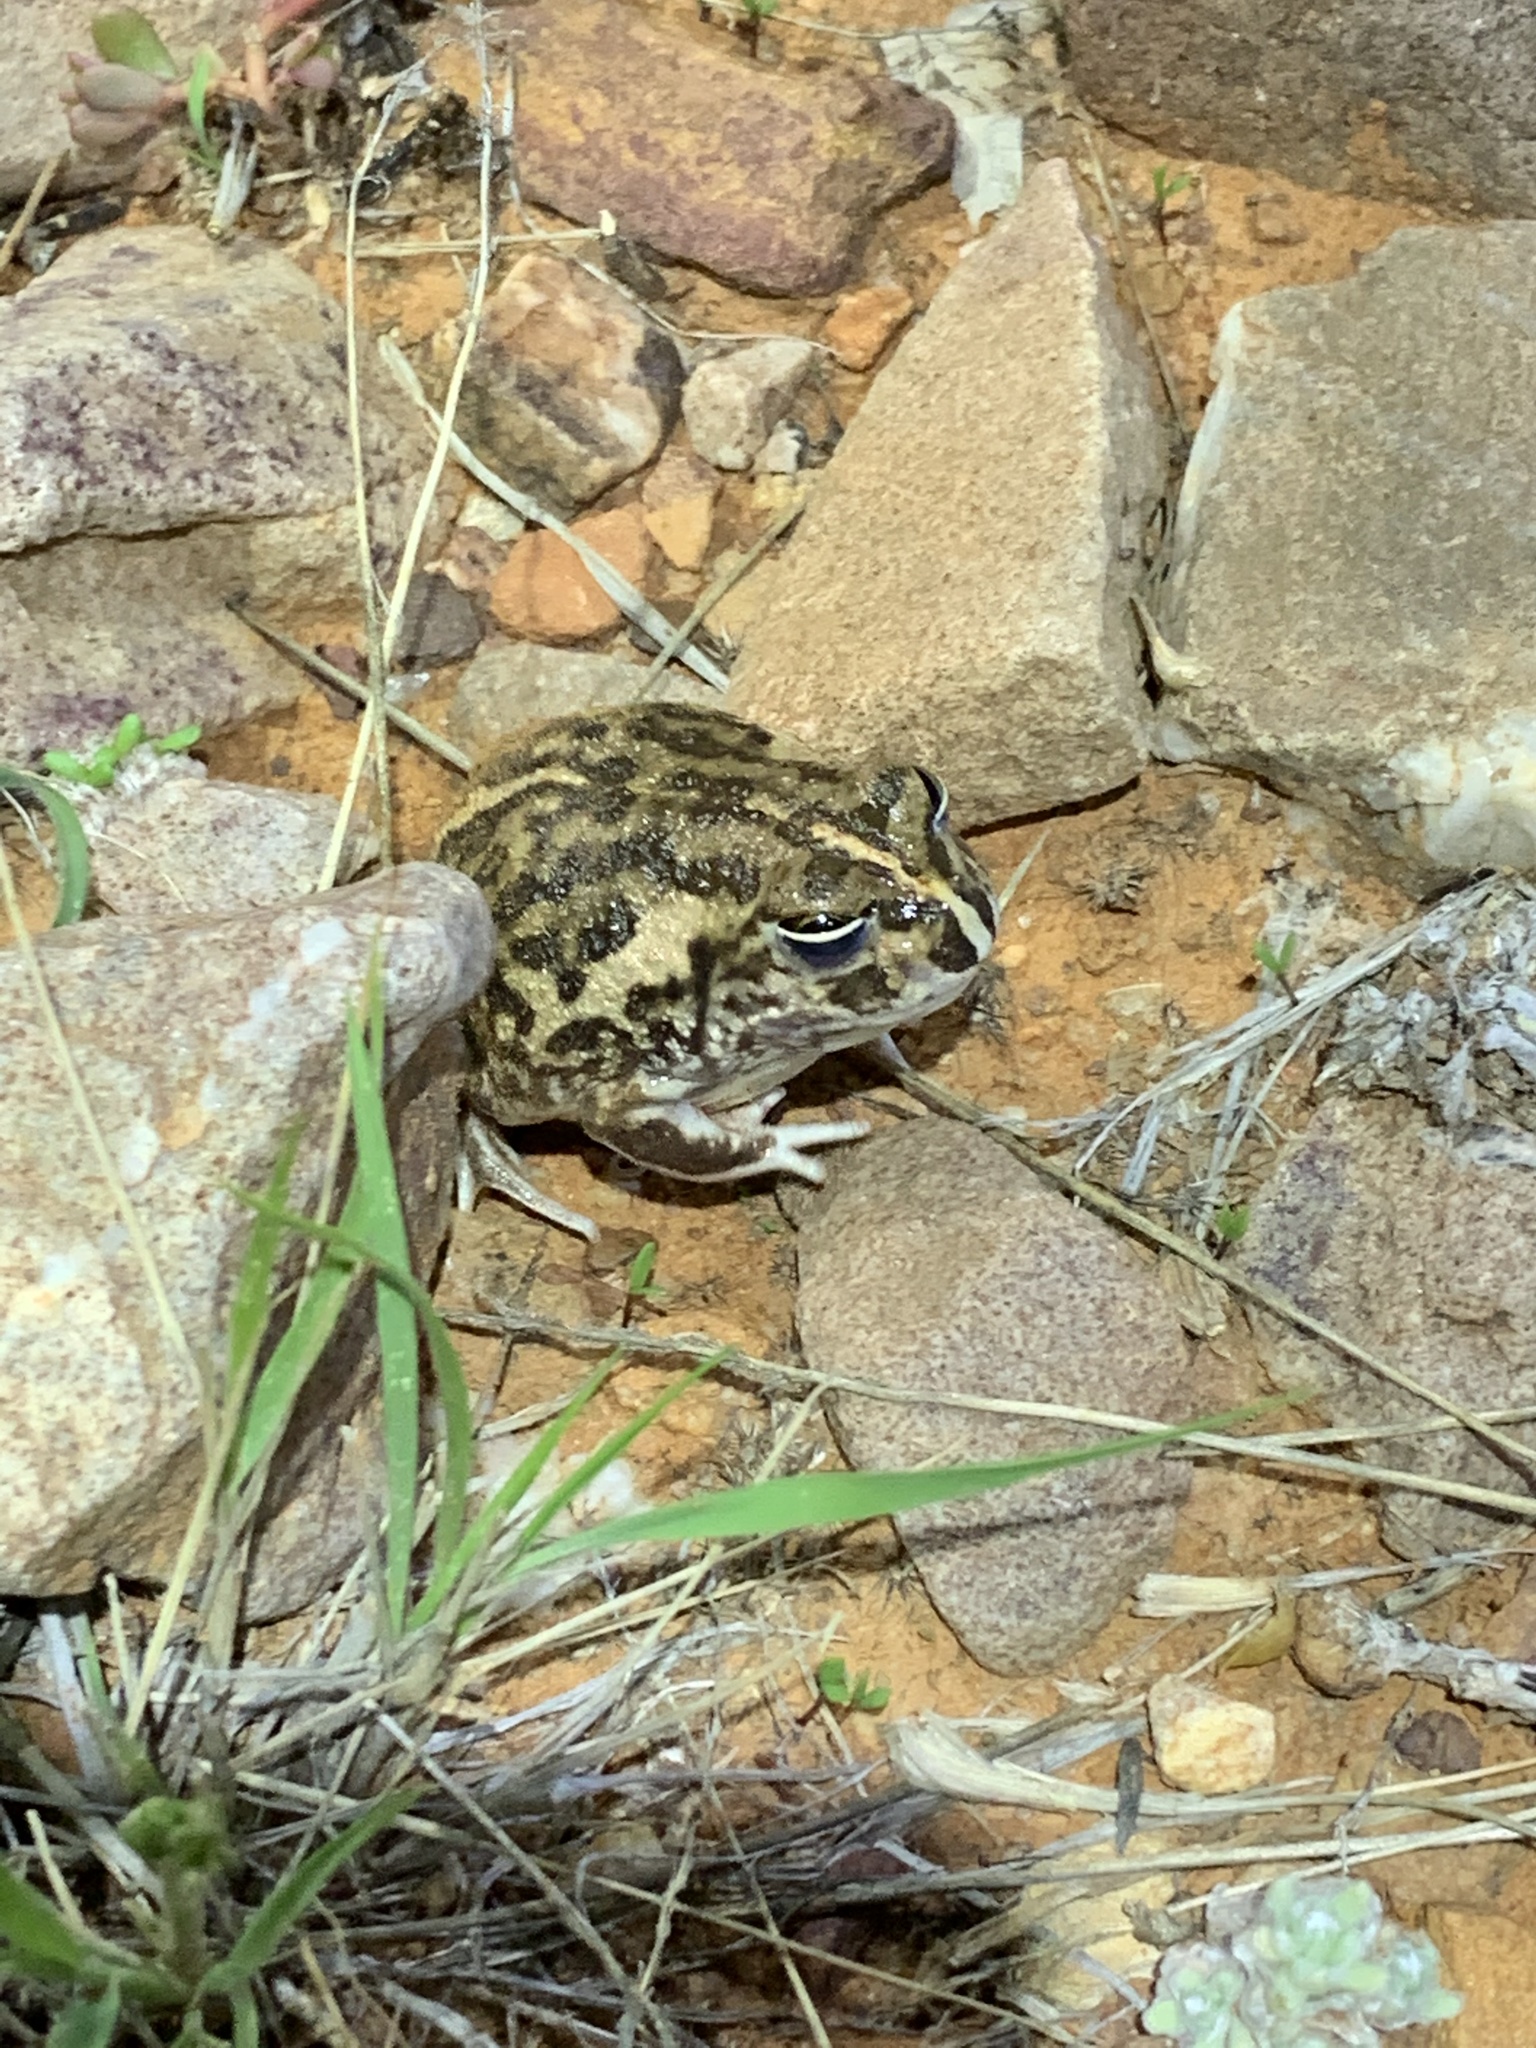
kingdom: Animalia
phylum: Chordata
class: Amphibia
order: Anura
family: Limnodynastidae
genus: Neobatrachus
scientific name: Neobatrachus sudelli
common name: Common spadefoot toad
